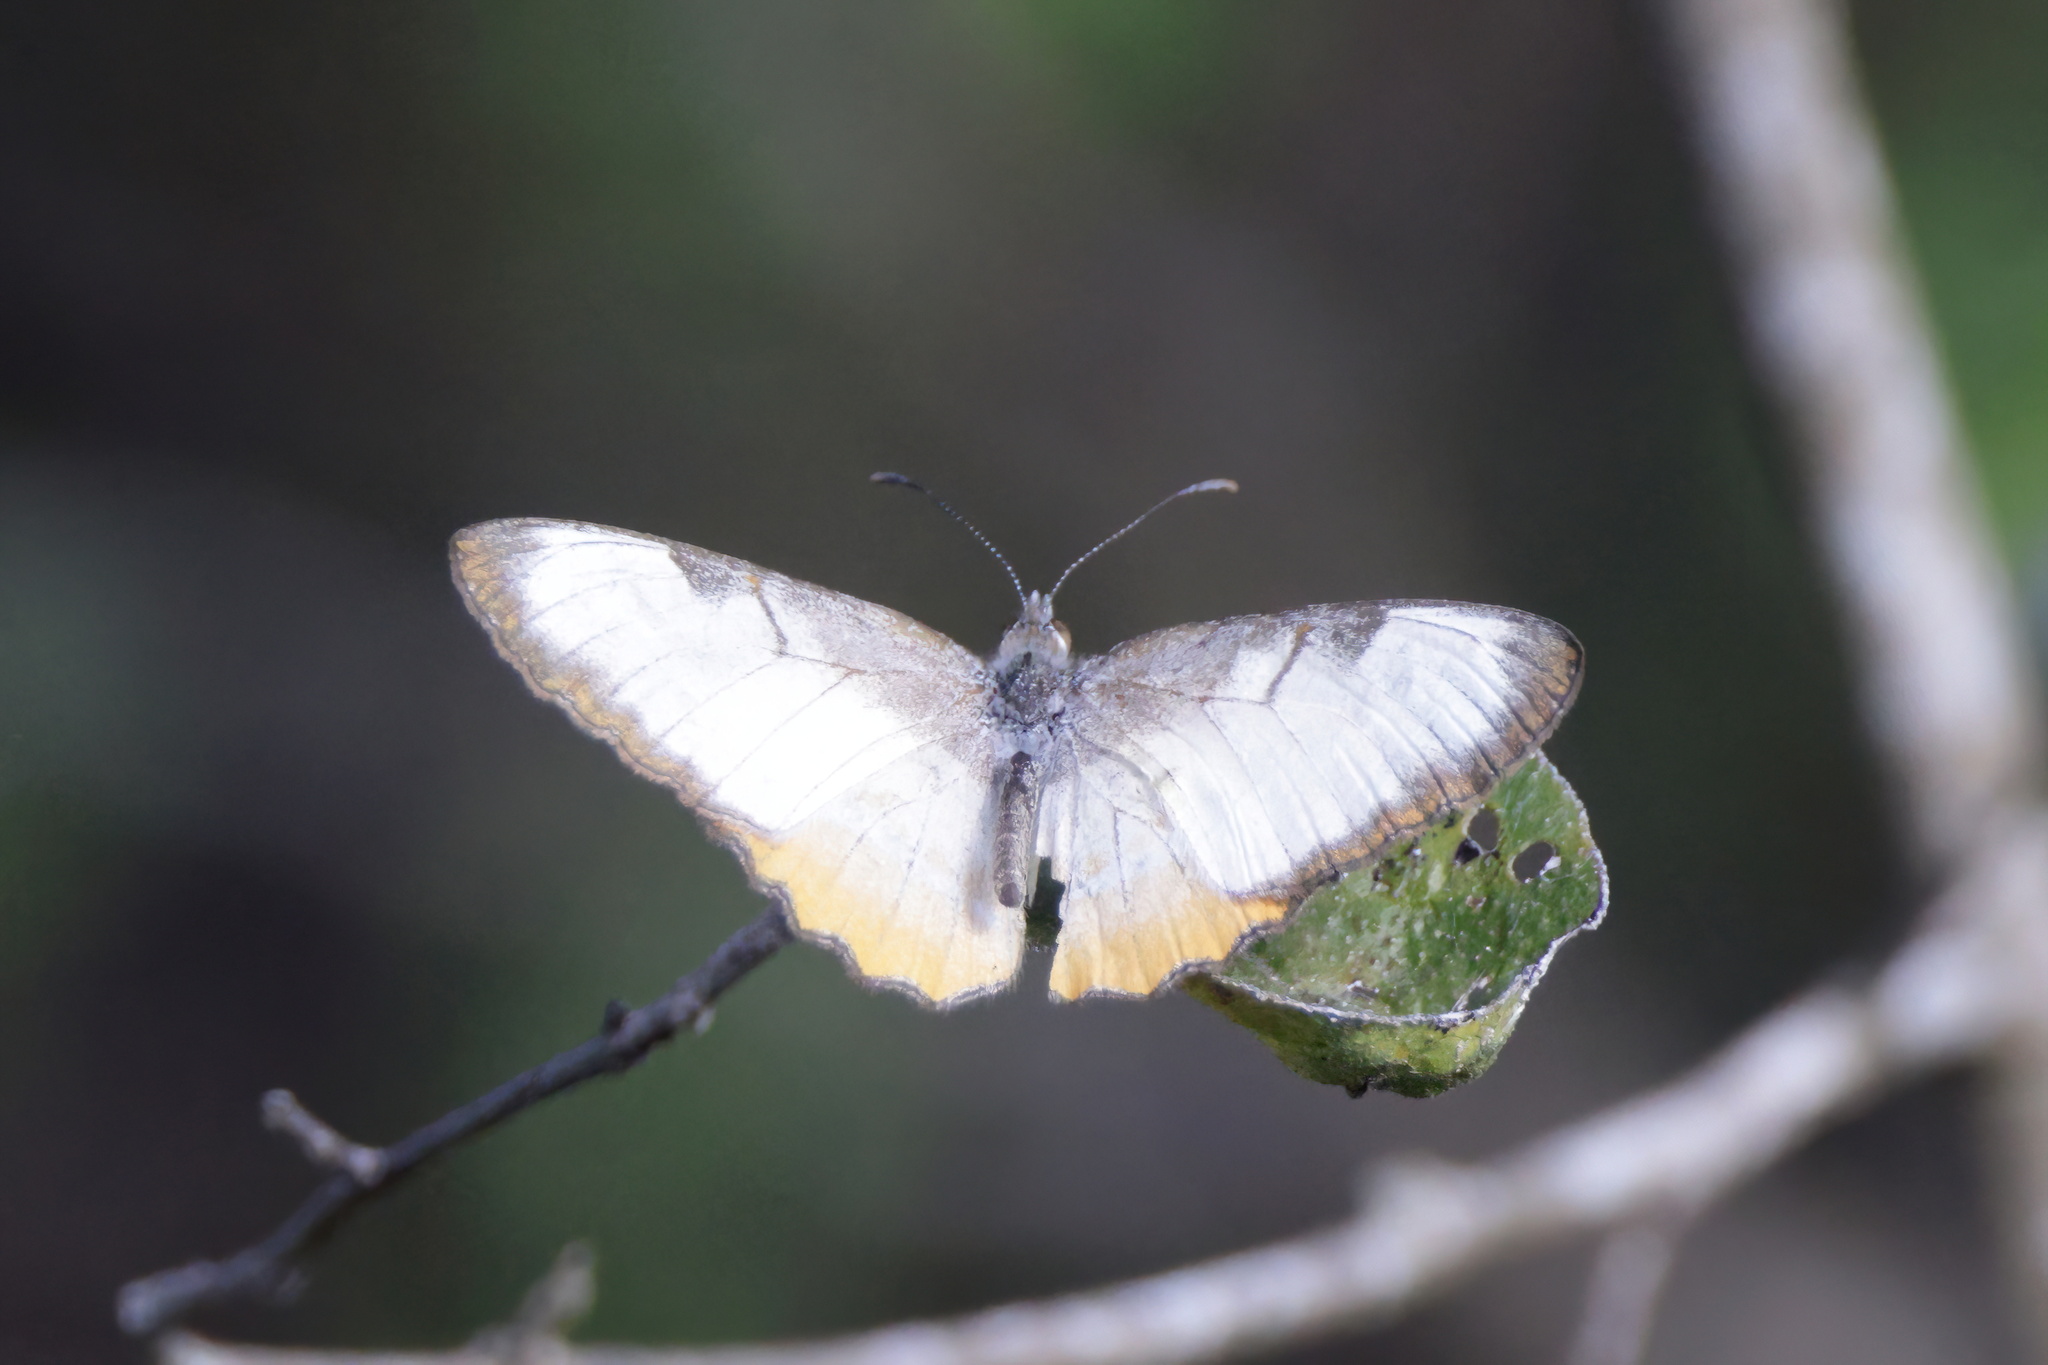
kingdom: Animalia
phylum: Arthropoda
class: Insecta
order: Lepidoptera
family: Nymphalidae
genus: Mestra
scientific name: Mestra amymone
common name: Common mestra
